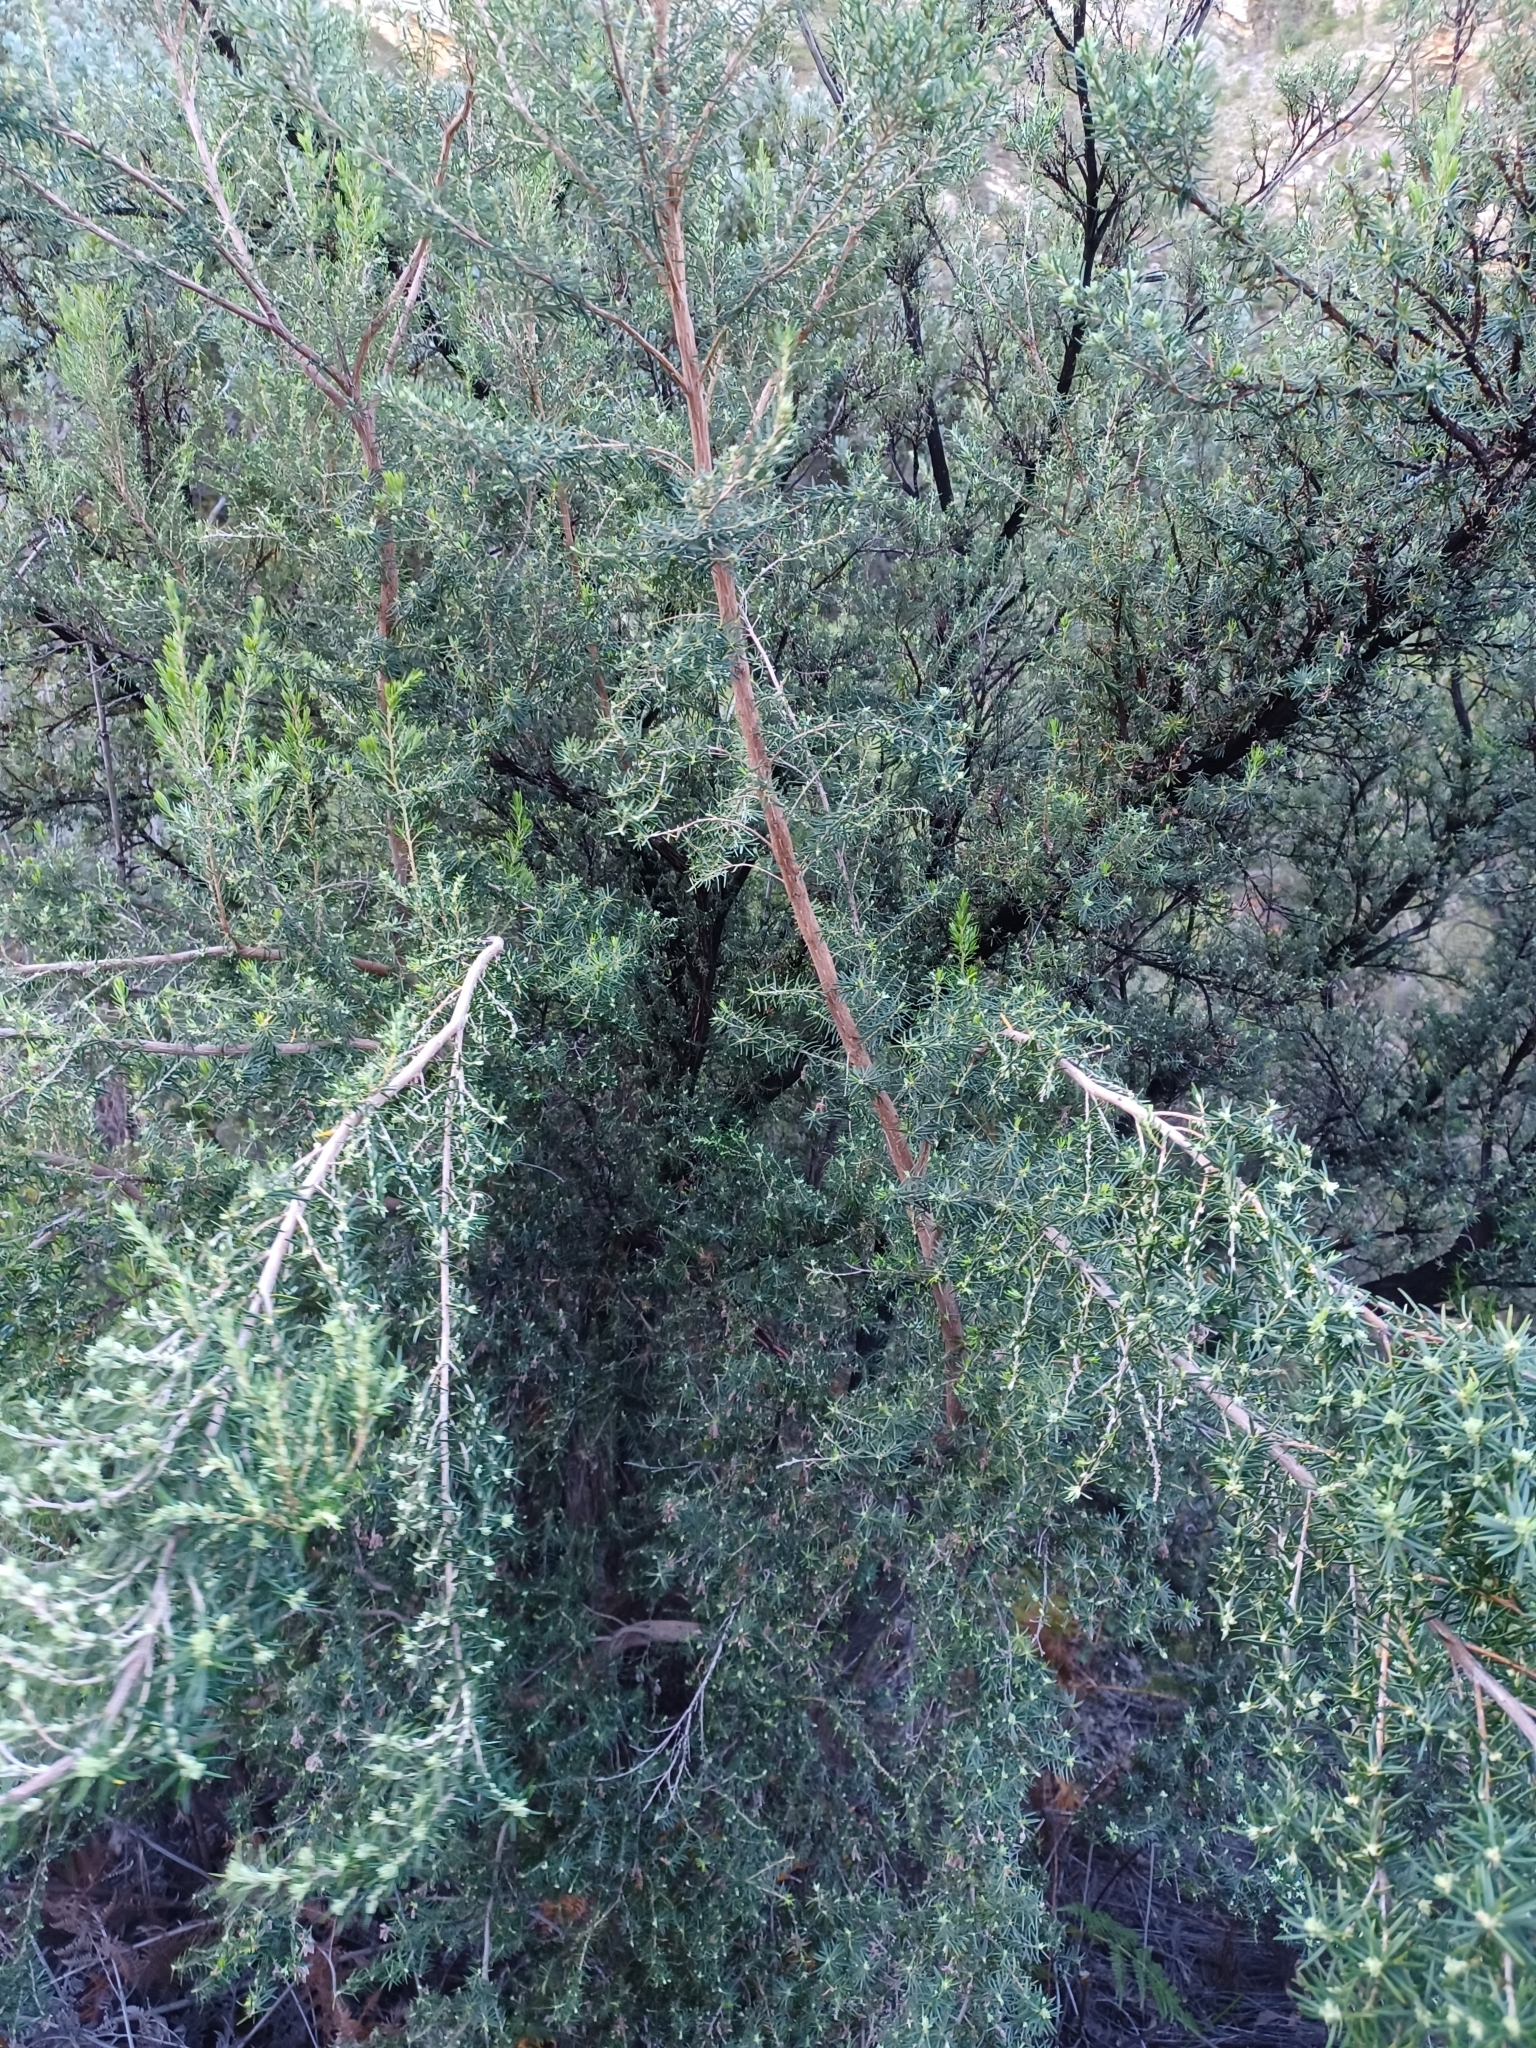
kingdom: Plantae
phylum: Tracheophyta
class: Magnoliopsida
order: Ericales
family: Ericaceae
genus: Erica
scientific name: Erica caffra
